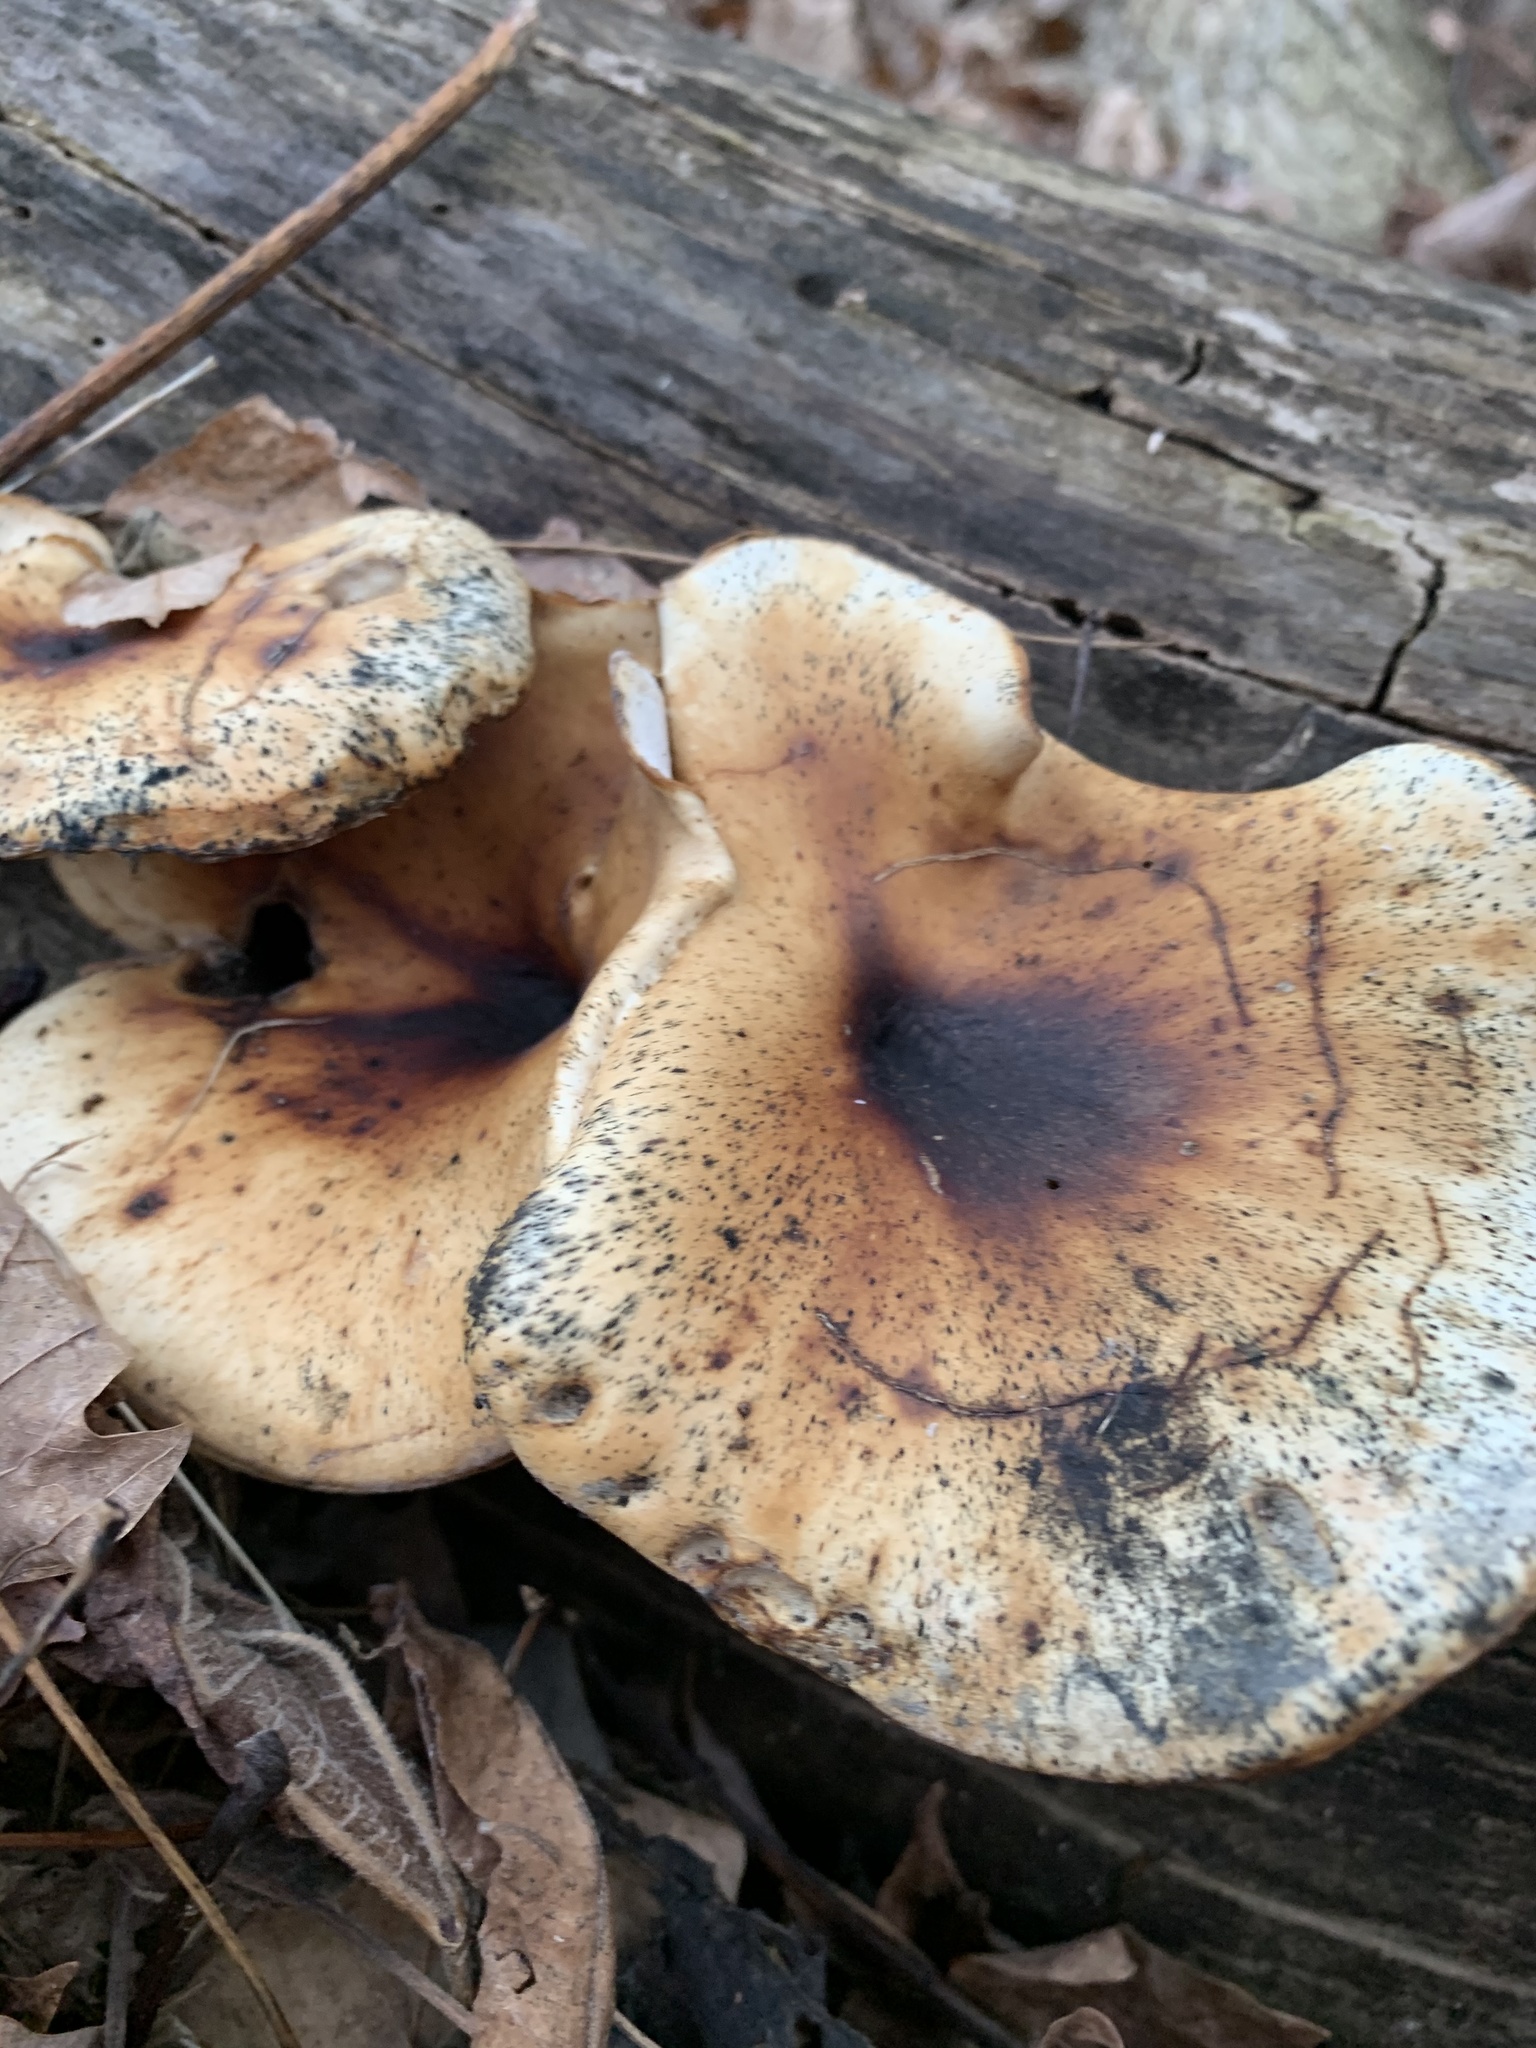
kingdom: Fungi
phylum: Basidiomycota
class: Agaricomycetes
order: Polyporales
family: Polyporaceae
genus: Picipes
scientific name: Picipes badius
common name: Bay polypore
